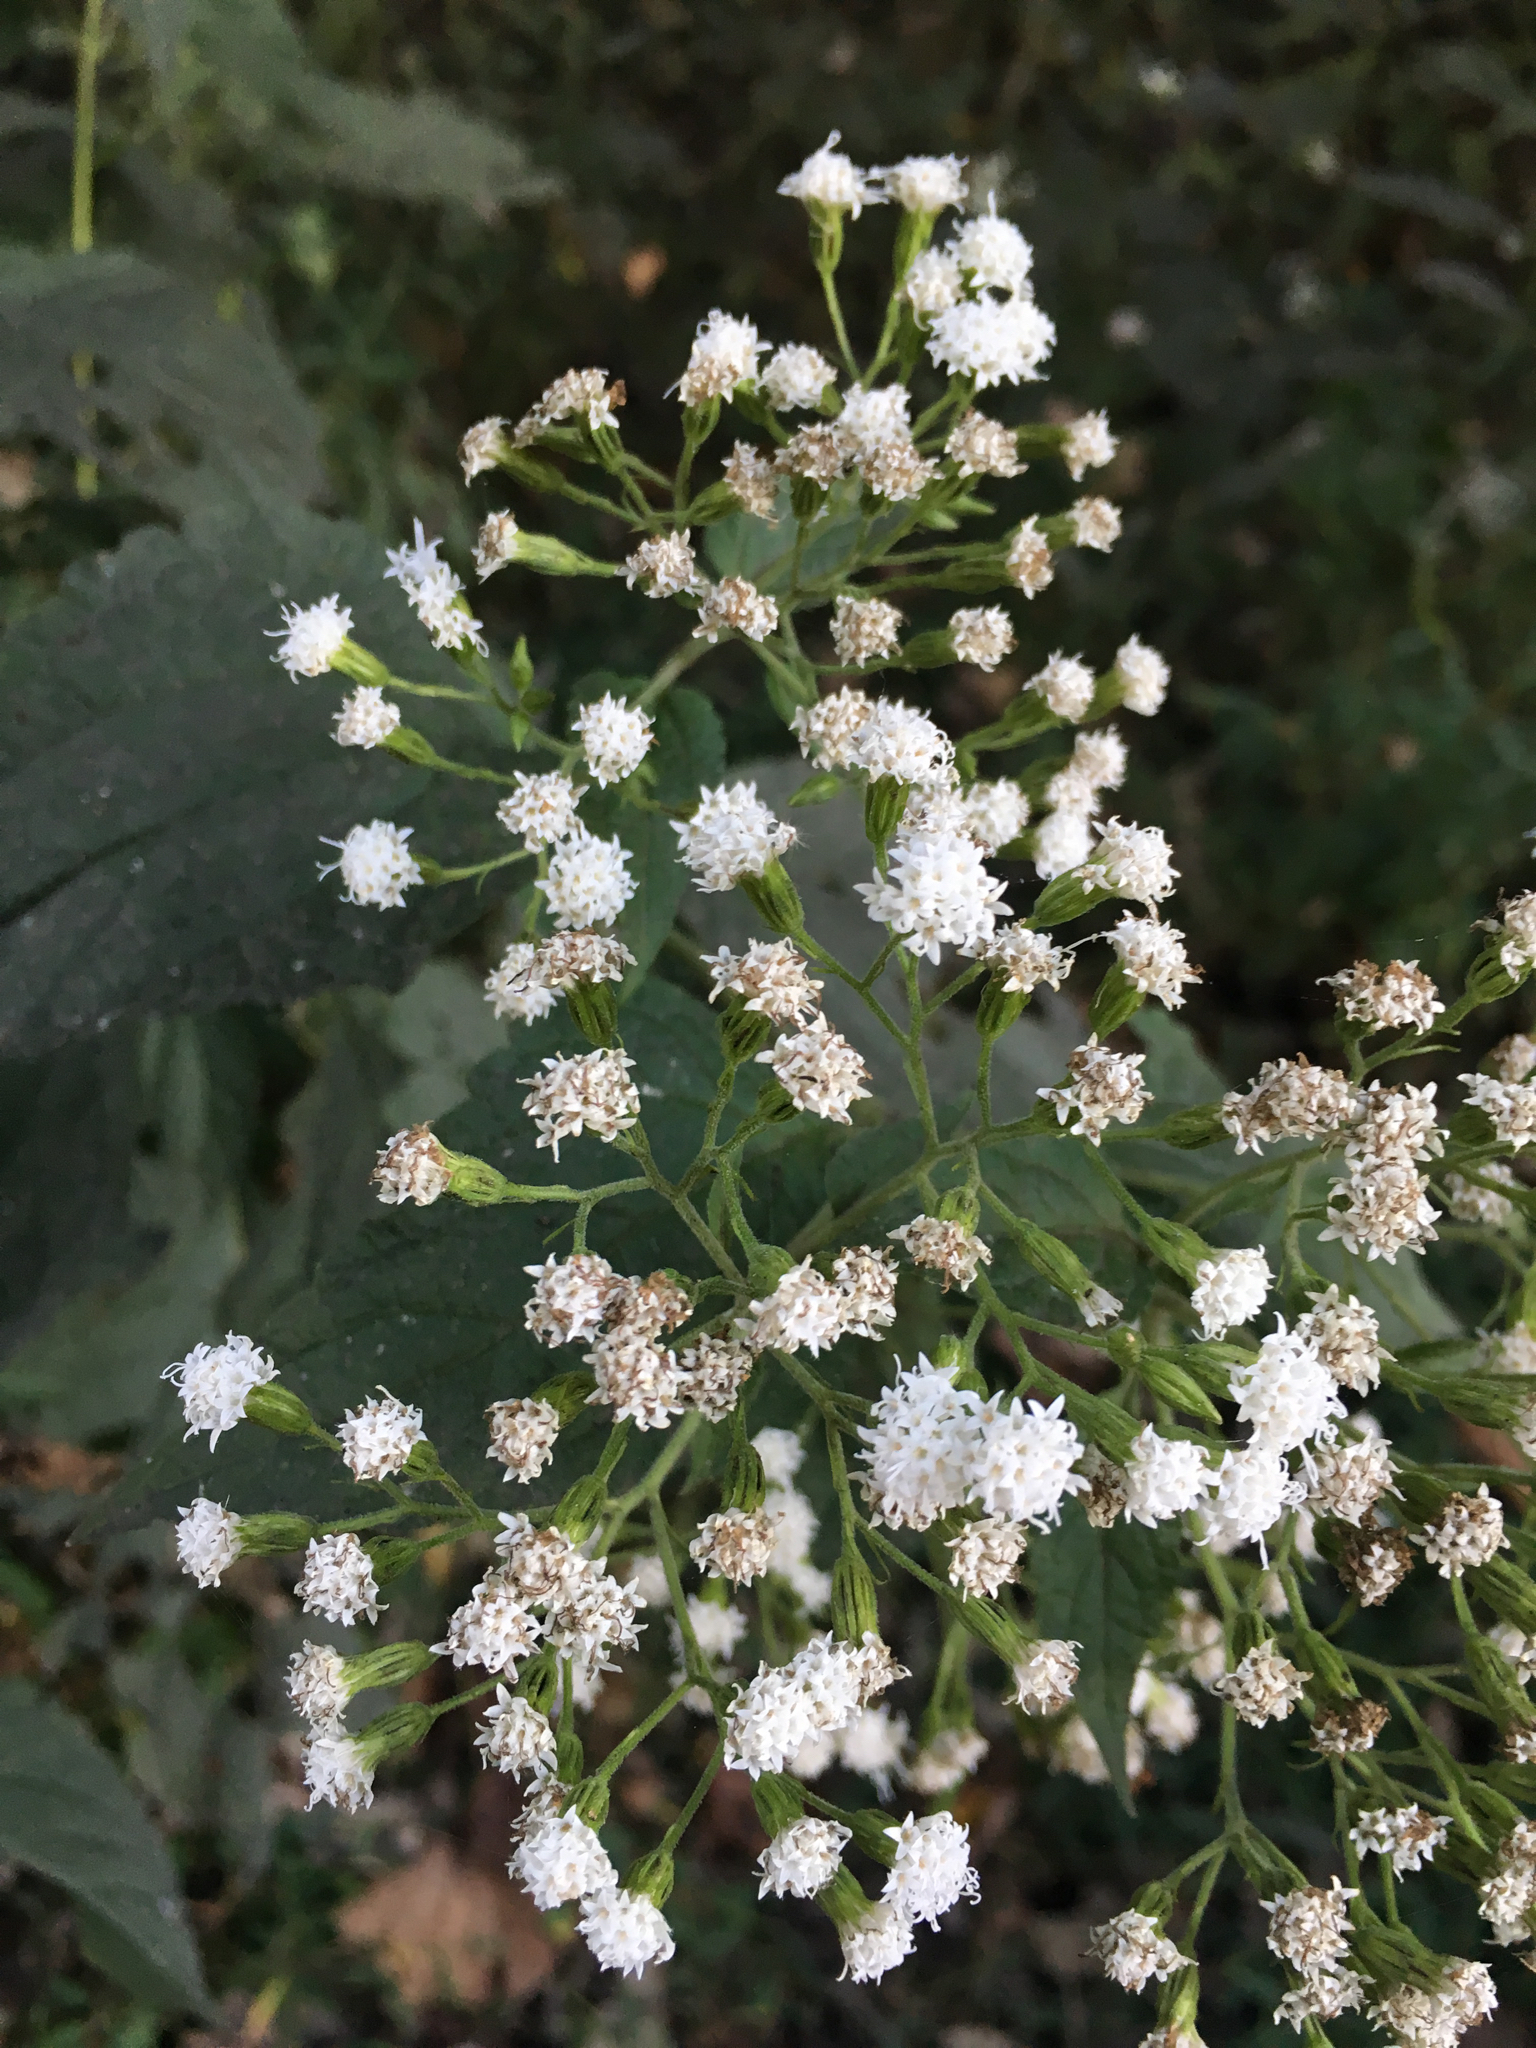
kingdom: Plantae
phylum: Tracheophyta
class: Magnoliopsida
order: Asterales
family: Asteraceae
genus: Ageratina
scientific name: Ageratina altissima
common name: White snakeroot
